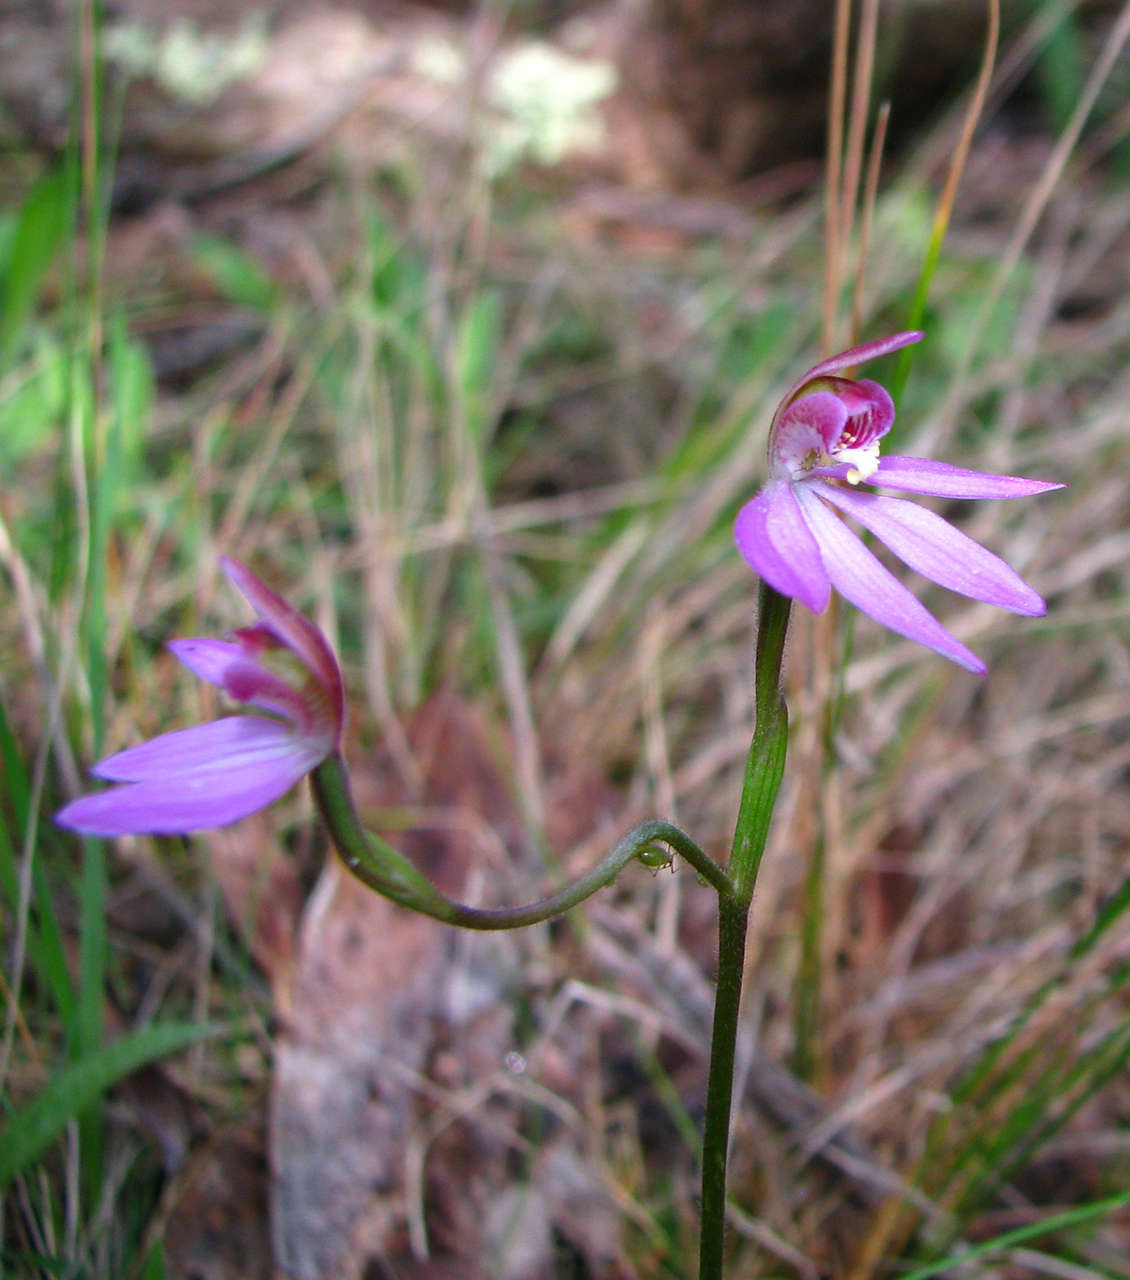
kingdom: Plantae
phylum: Tracheophyta
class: Liliopsida
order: Asparagales
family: Orchidaceae
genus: Caladenia
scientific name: Caladenia carnea
